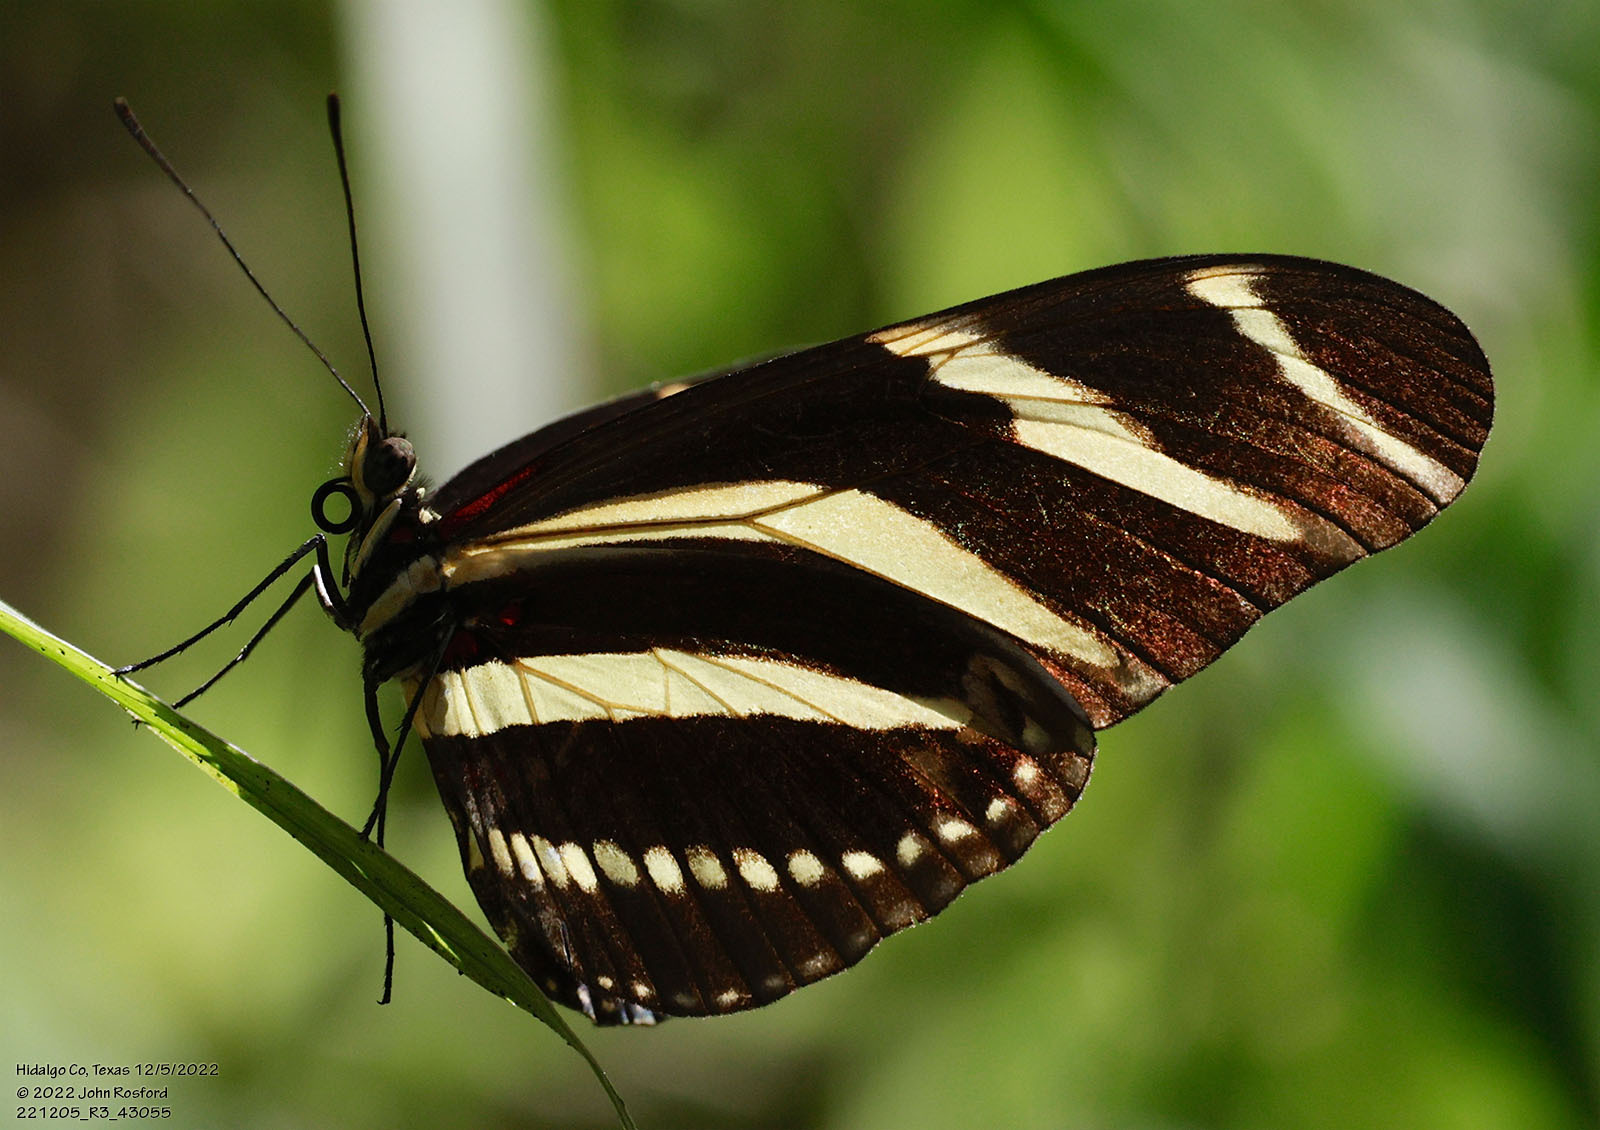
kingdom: Animalia
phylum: Arthropoda
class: Insecta
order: Lepidoptera
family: Nymphalidae
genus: Heliconius
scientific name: Heliconius charithonia
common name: Zebra long wing
